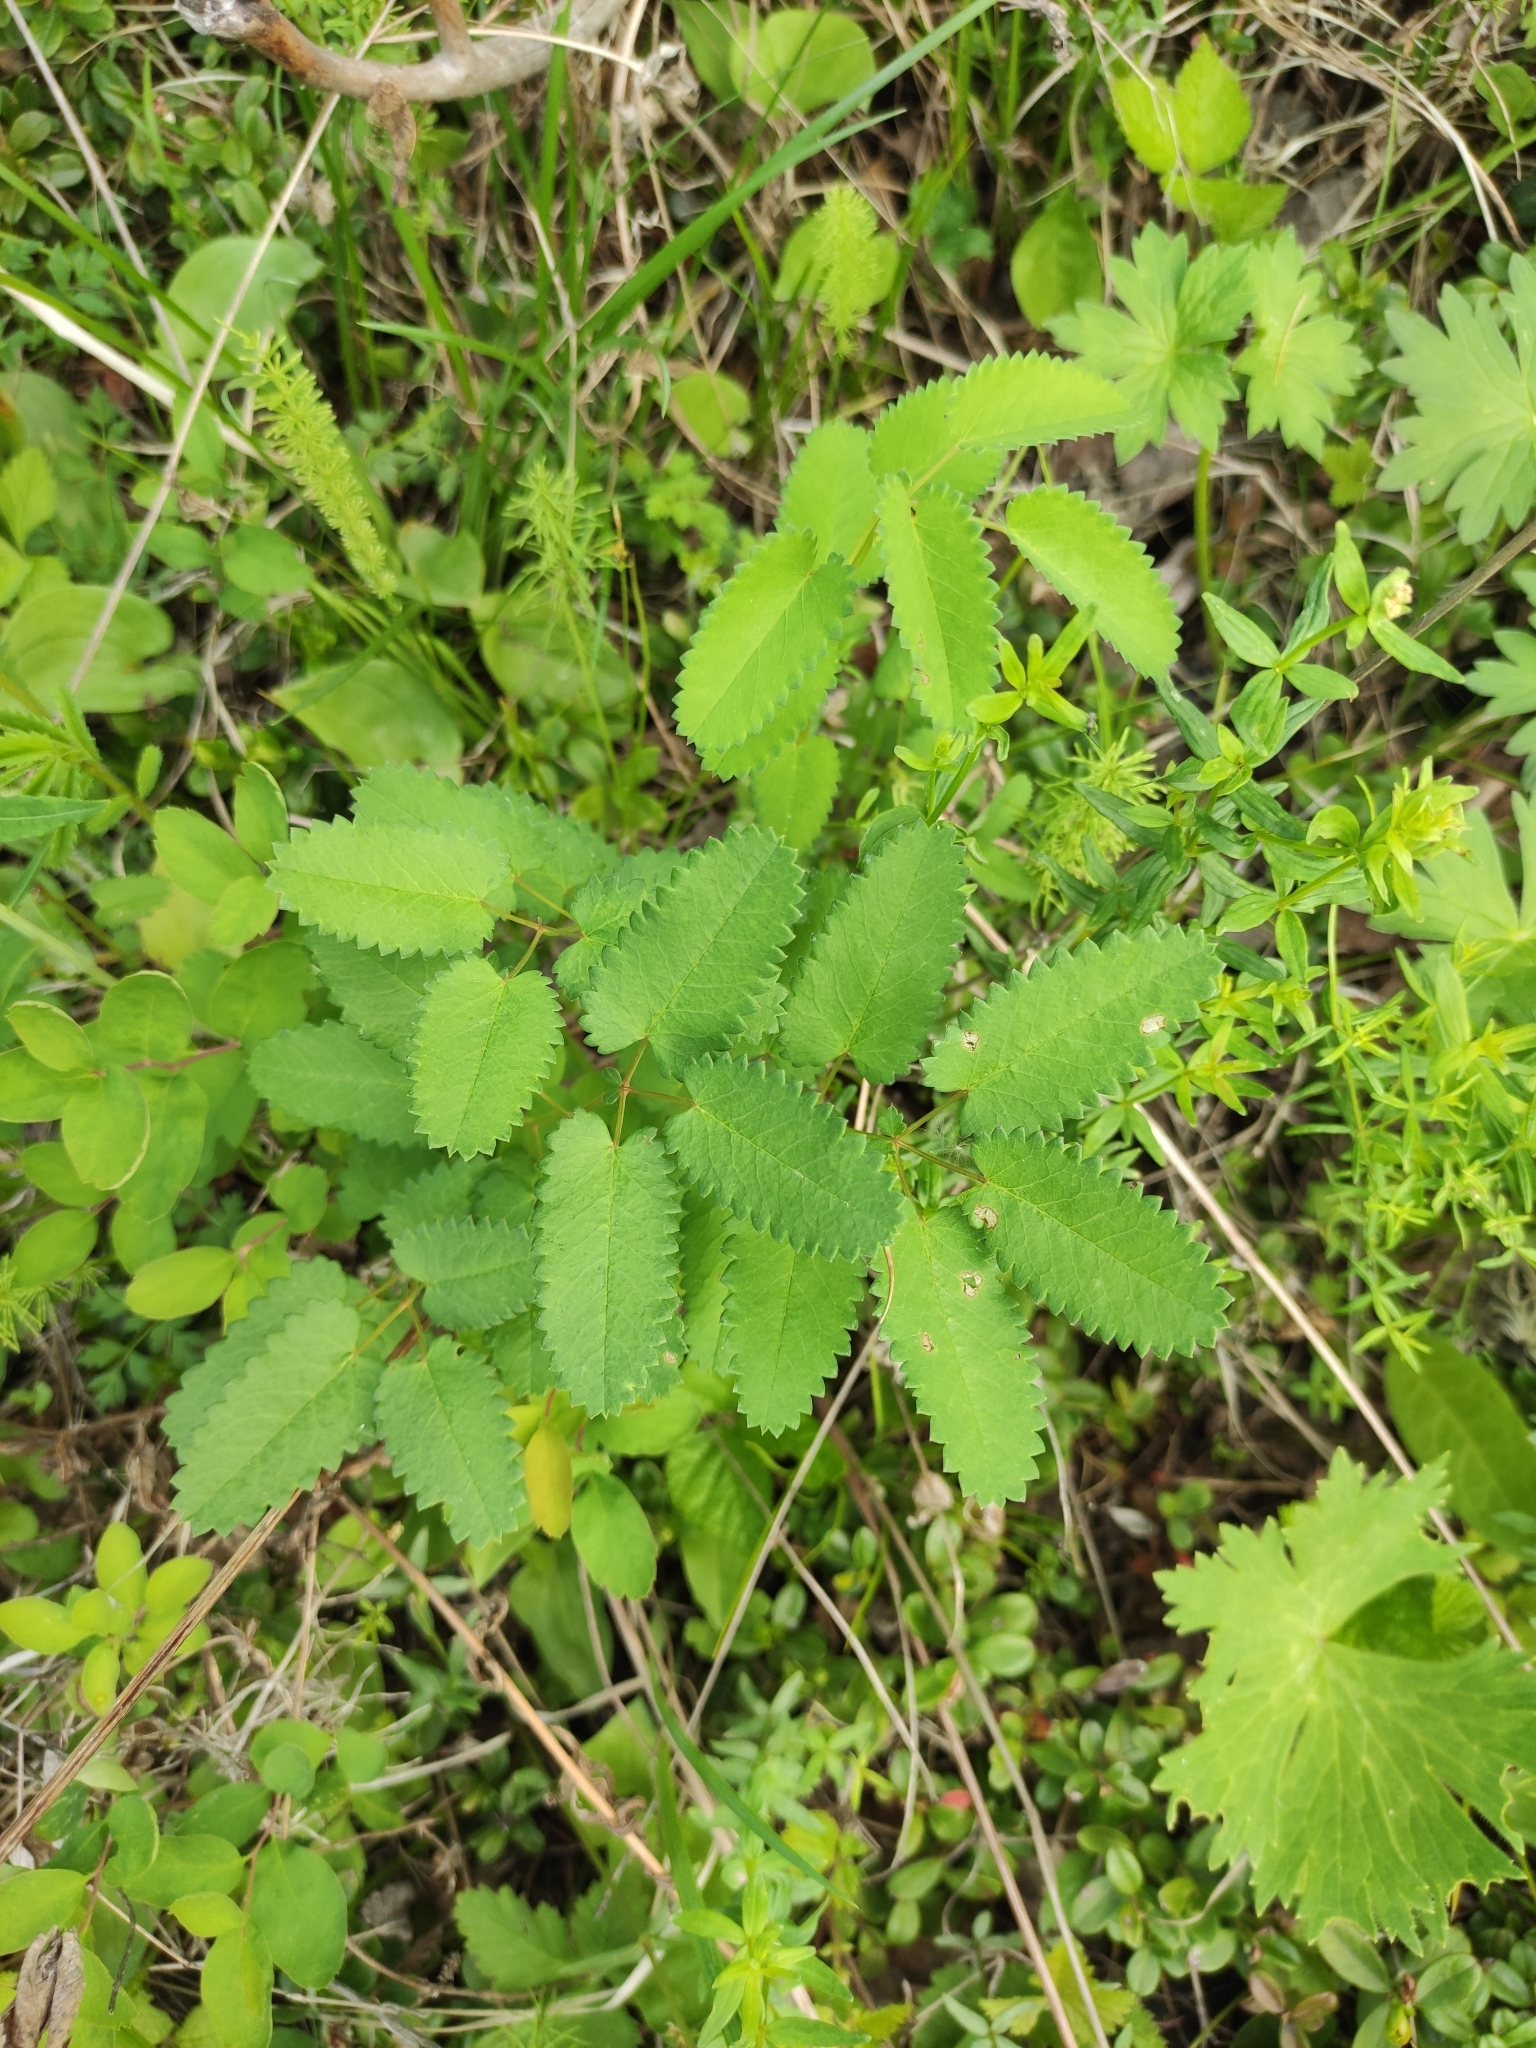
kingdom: Plantae
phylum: Tracheophyta
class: Magnoliopsida
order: Rosales
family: Rosaceae
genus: Sanguisorba
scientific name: Sanguisorba officinalis
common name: Great burnet
